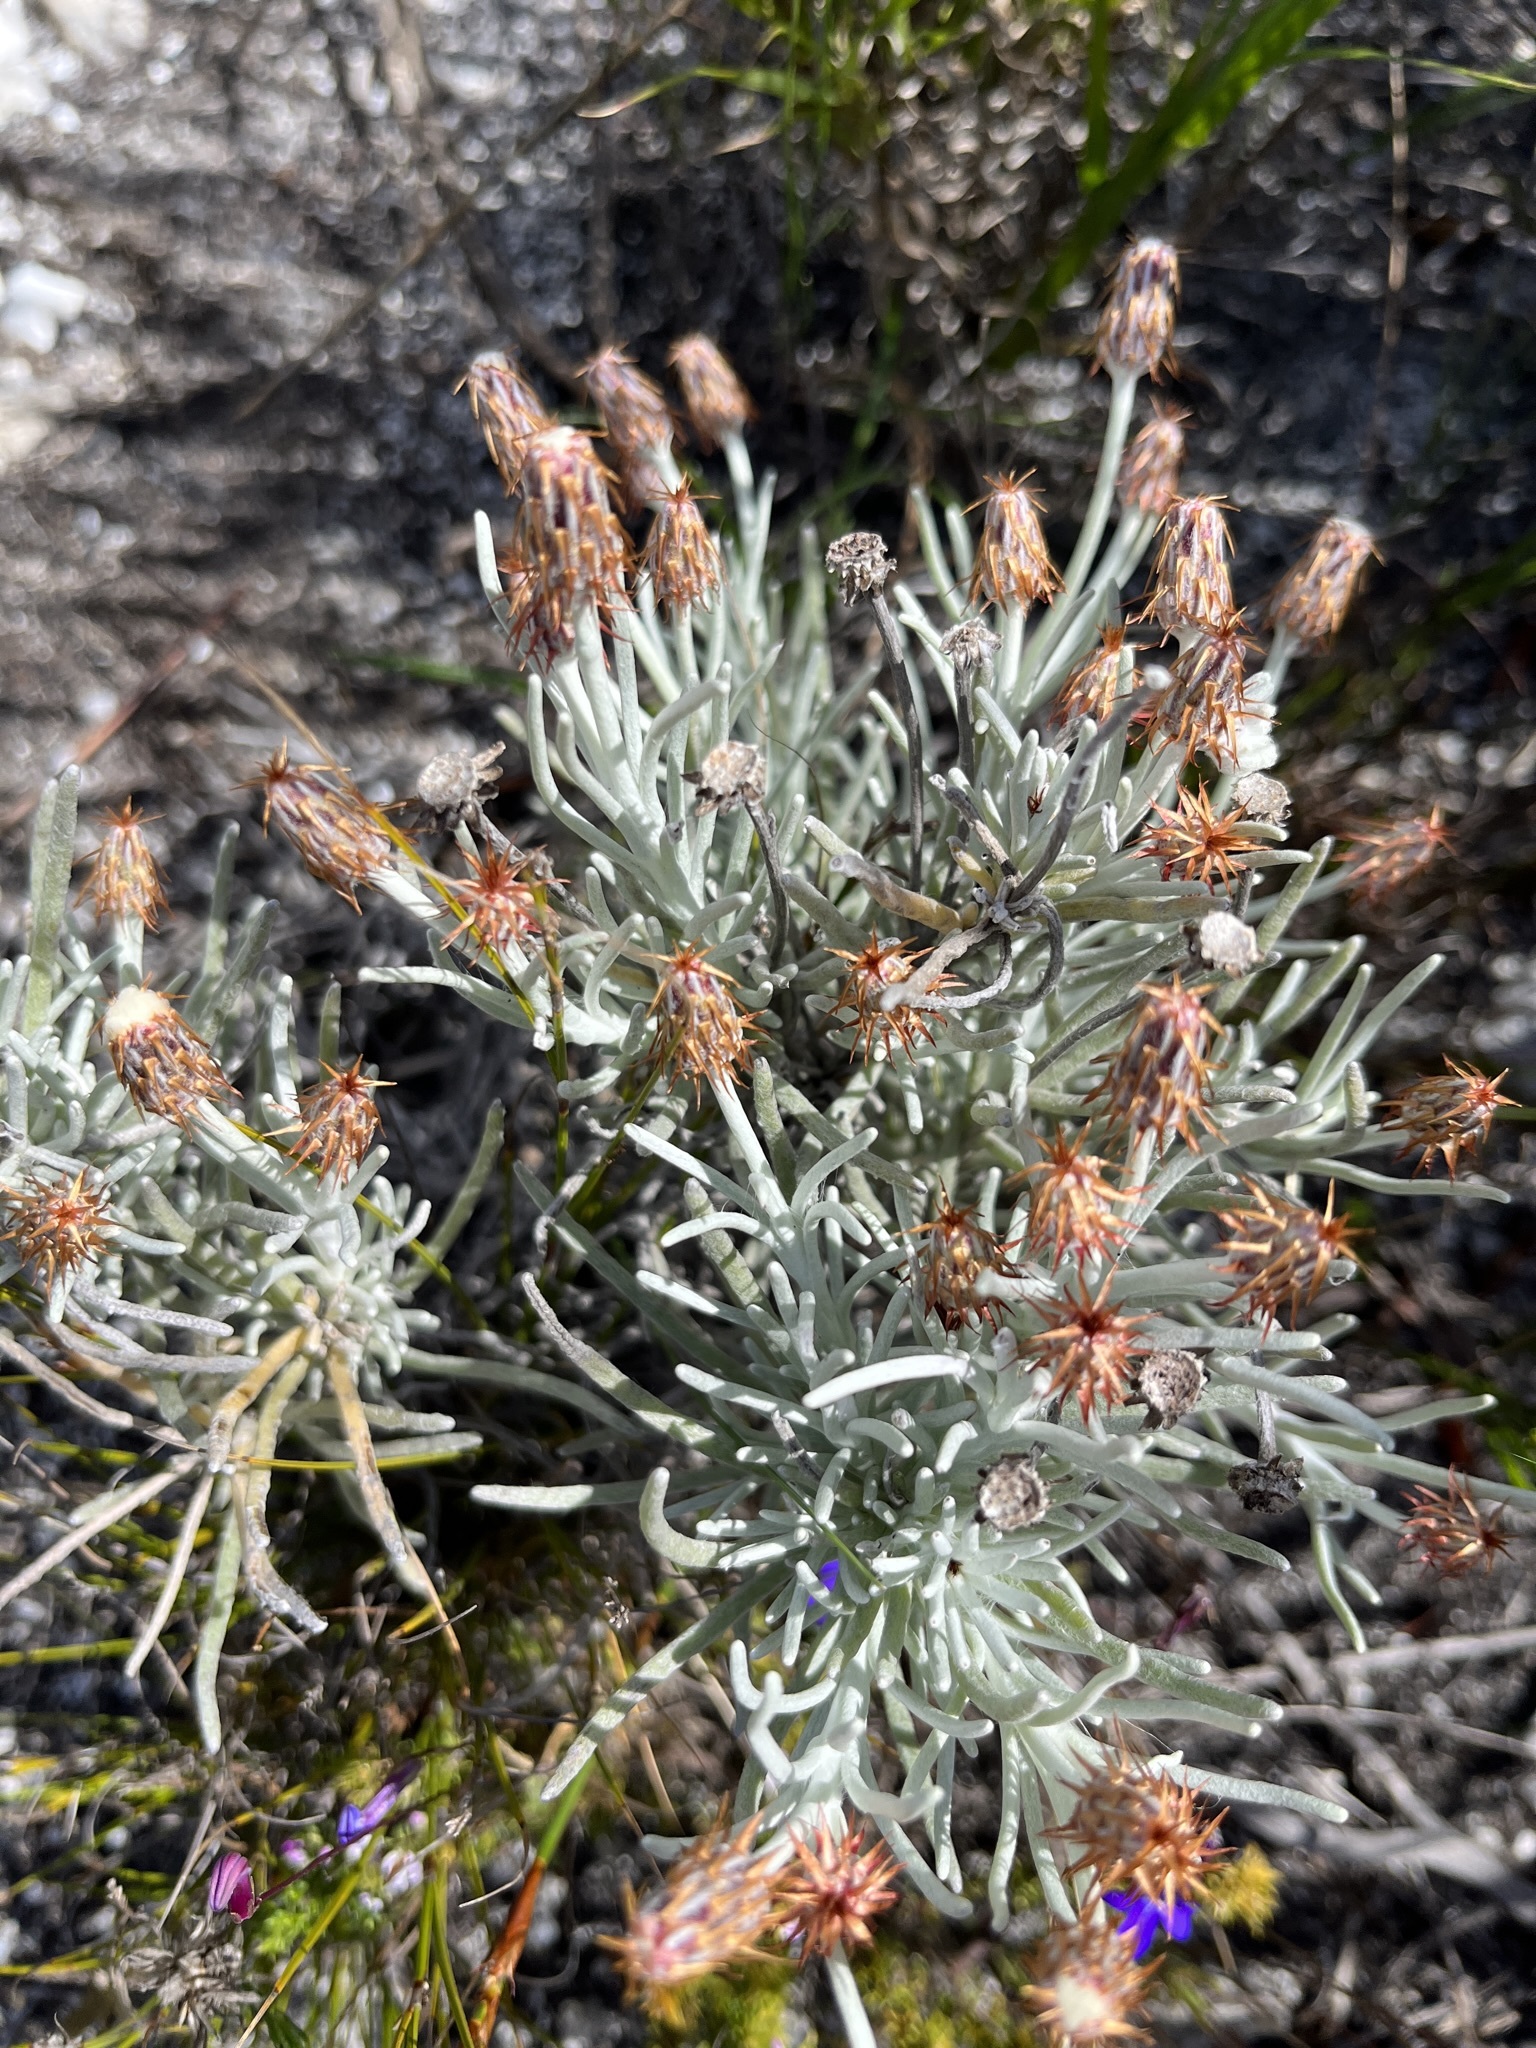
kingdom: Plantae
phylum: Tracheophyta
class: Magnoliopsida
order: Asterales
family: Asteraceae
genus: Syncarpha
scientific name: Syncarpha gnaphaloides
